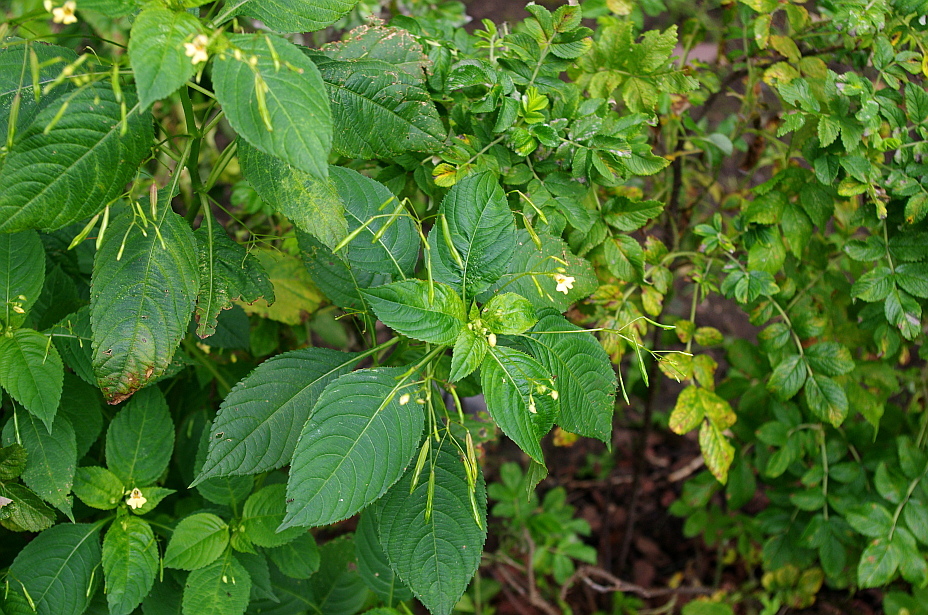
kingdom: Plantae
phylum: Tracheophyta
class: Magnoliopsida
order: Ericales
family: Balsaminaceae
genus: Impatiens
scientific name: Impatiens parviflora
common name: Small balsam
